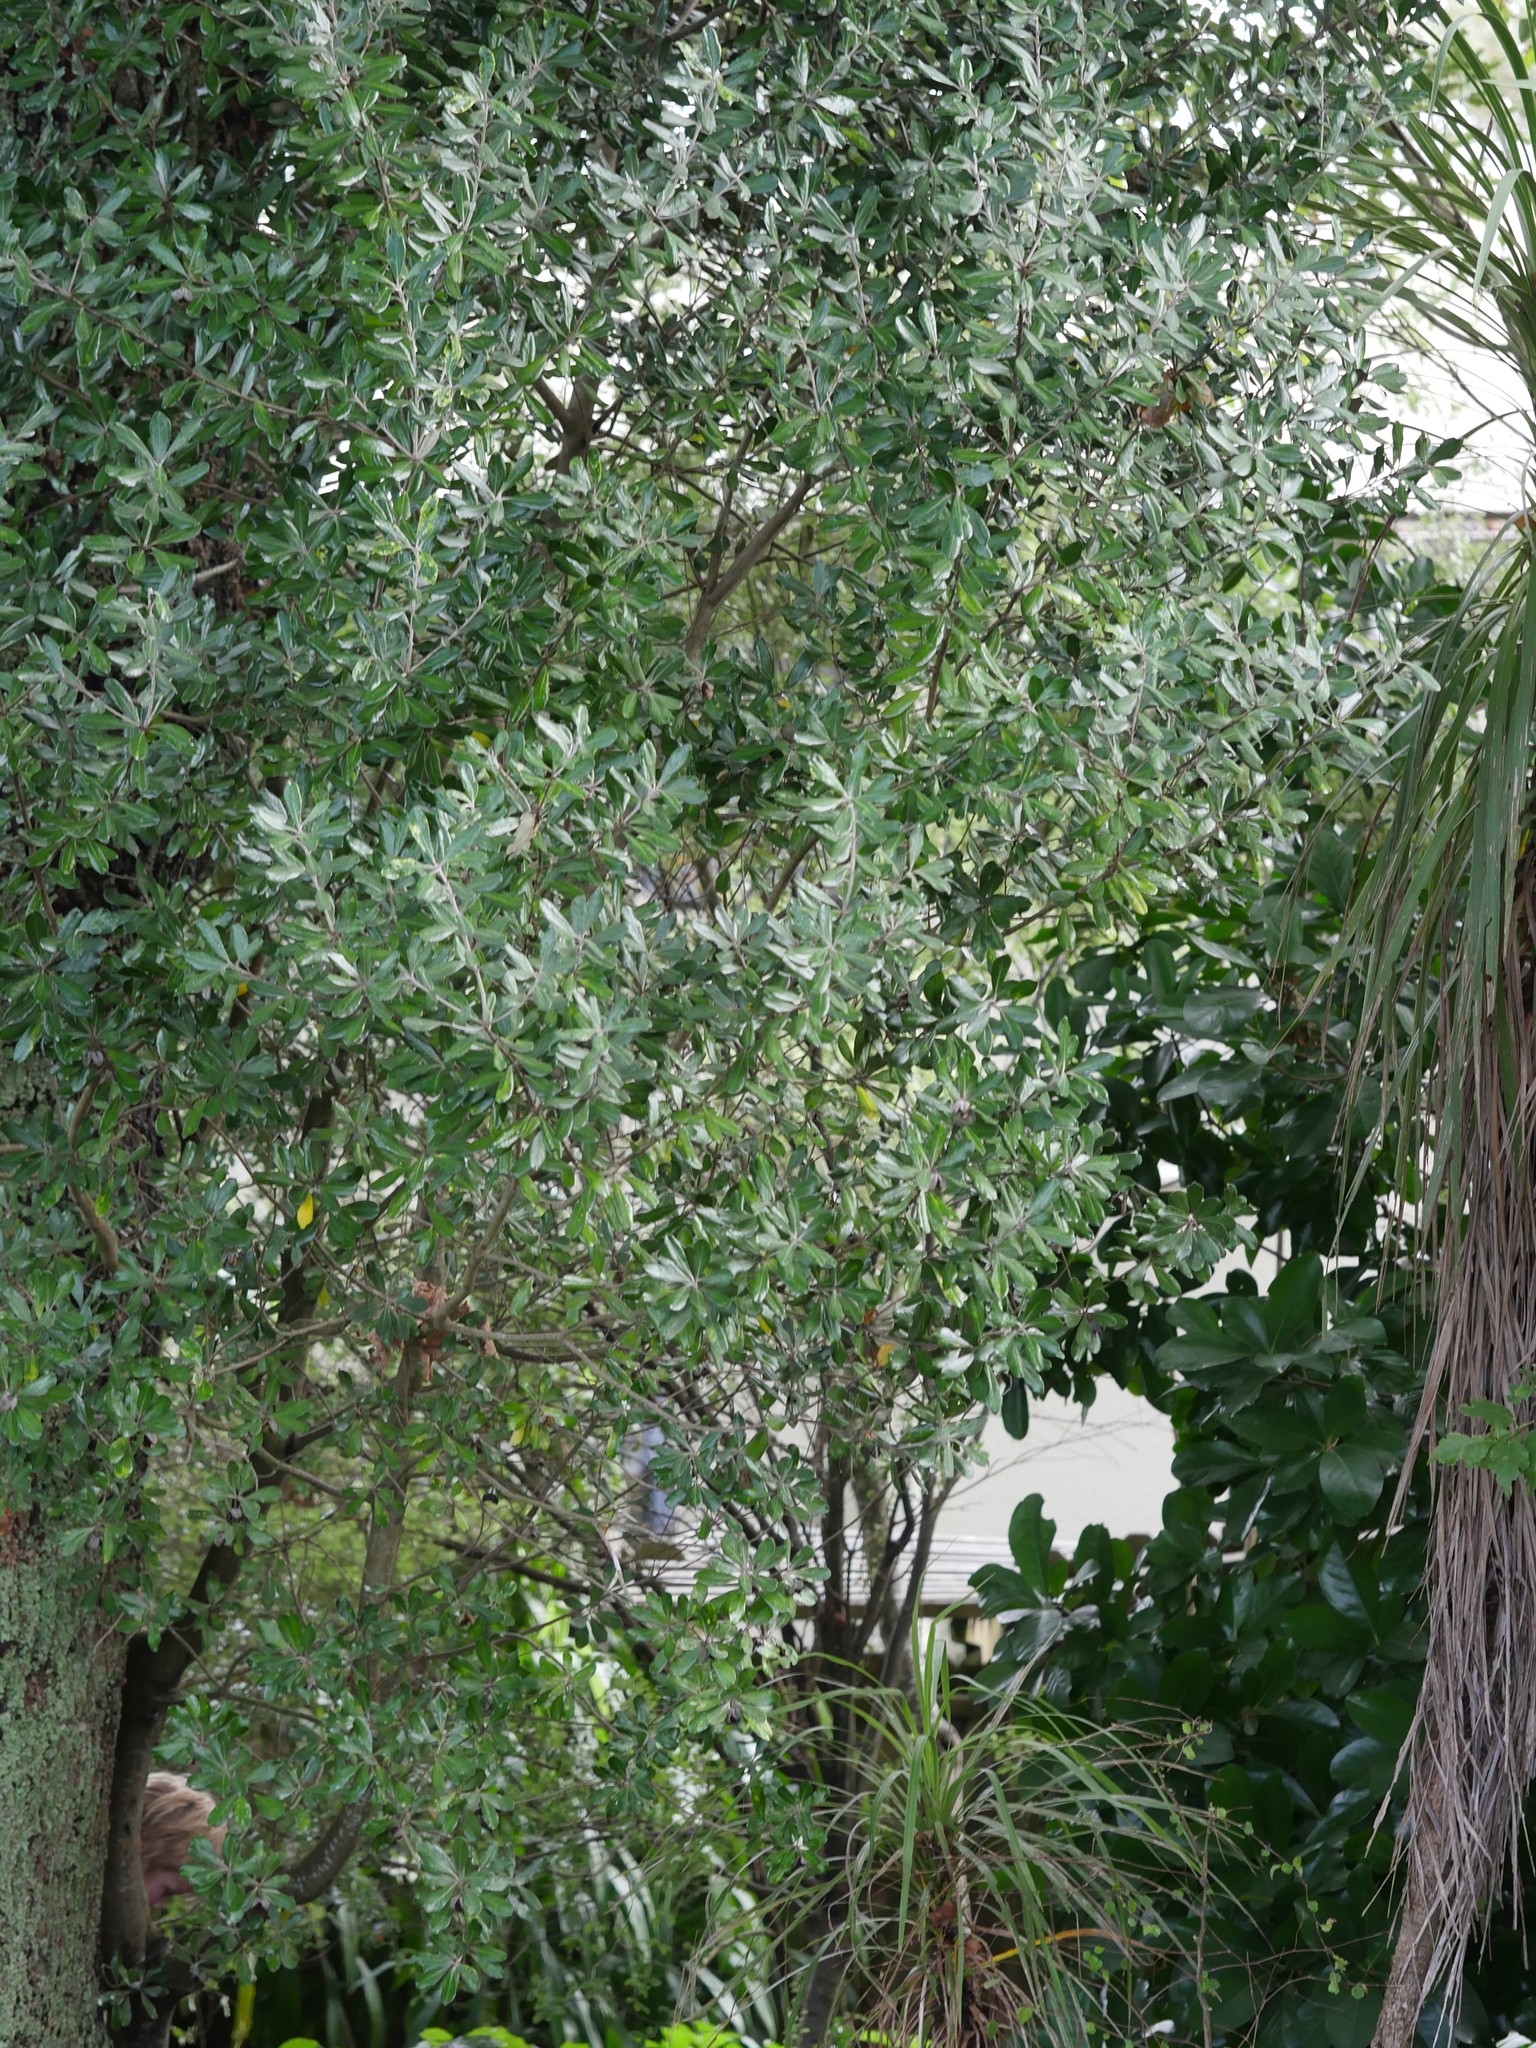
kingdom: Plantae
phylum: Tracheophyta
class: Magnoliopsida
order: Apiales
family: Pittosporaceae
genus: Pittosporum
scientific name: Pittosporum crassifolium
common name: Karo
